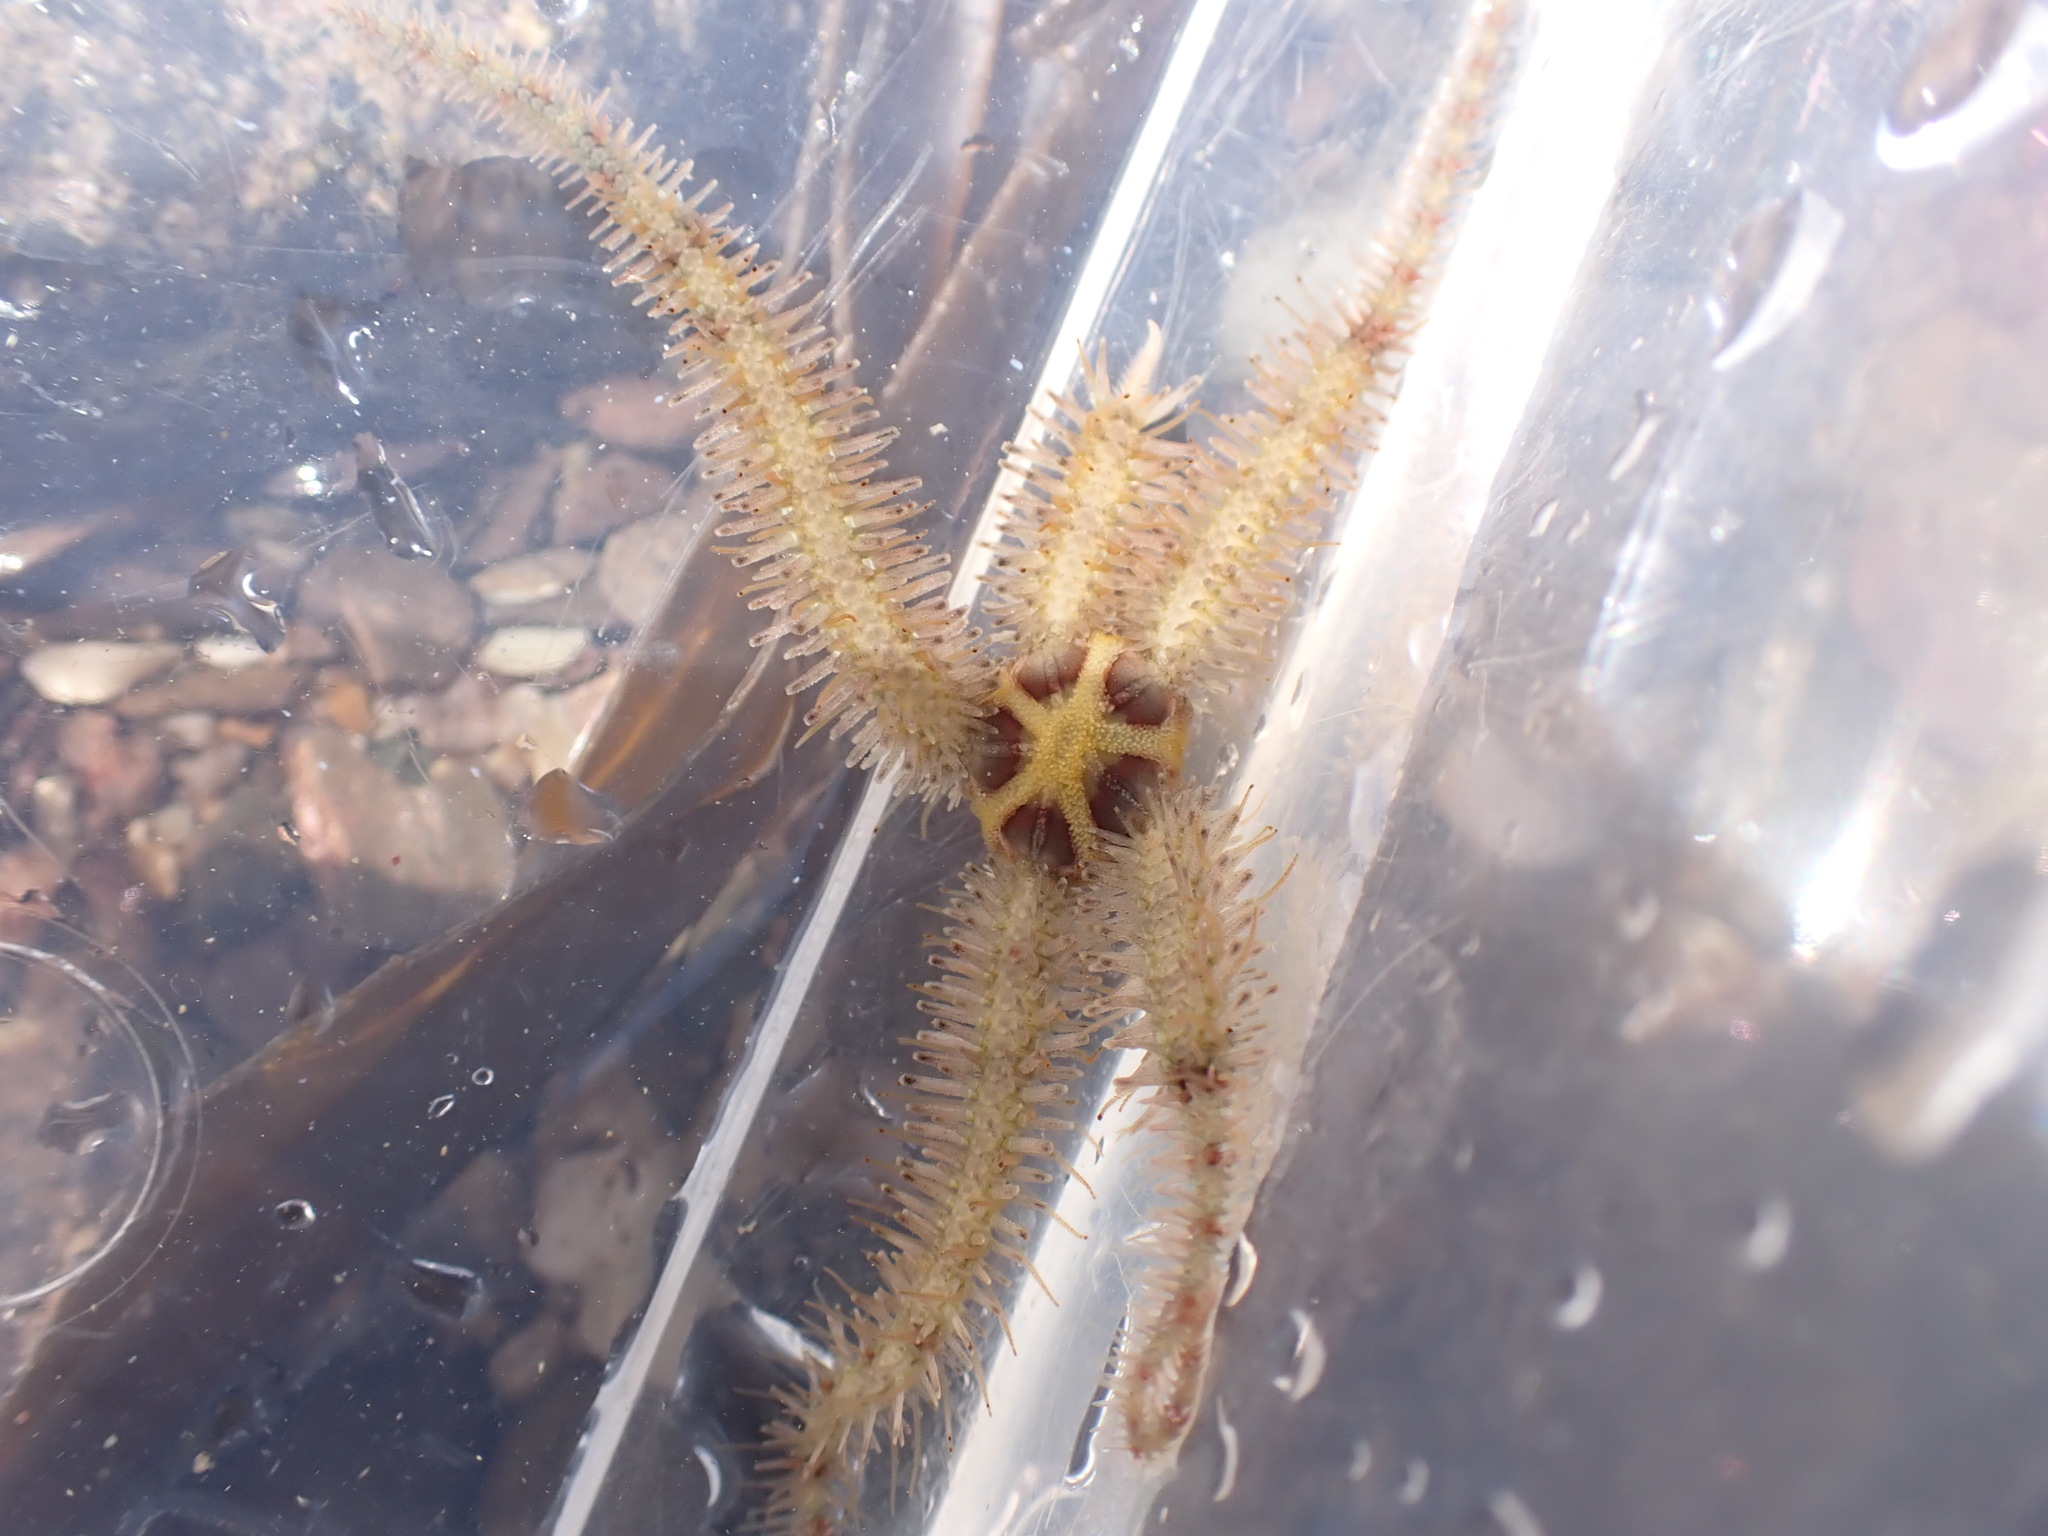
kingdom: Animalia
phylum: Echinodermata
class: Ophiuroidea
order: Amphilepidida
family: Ophiotrichidae
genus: Ophiothrix
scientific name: Ophiothrix fragilis
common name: Common brittlestar
